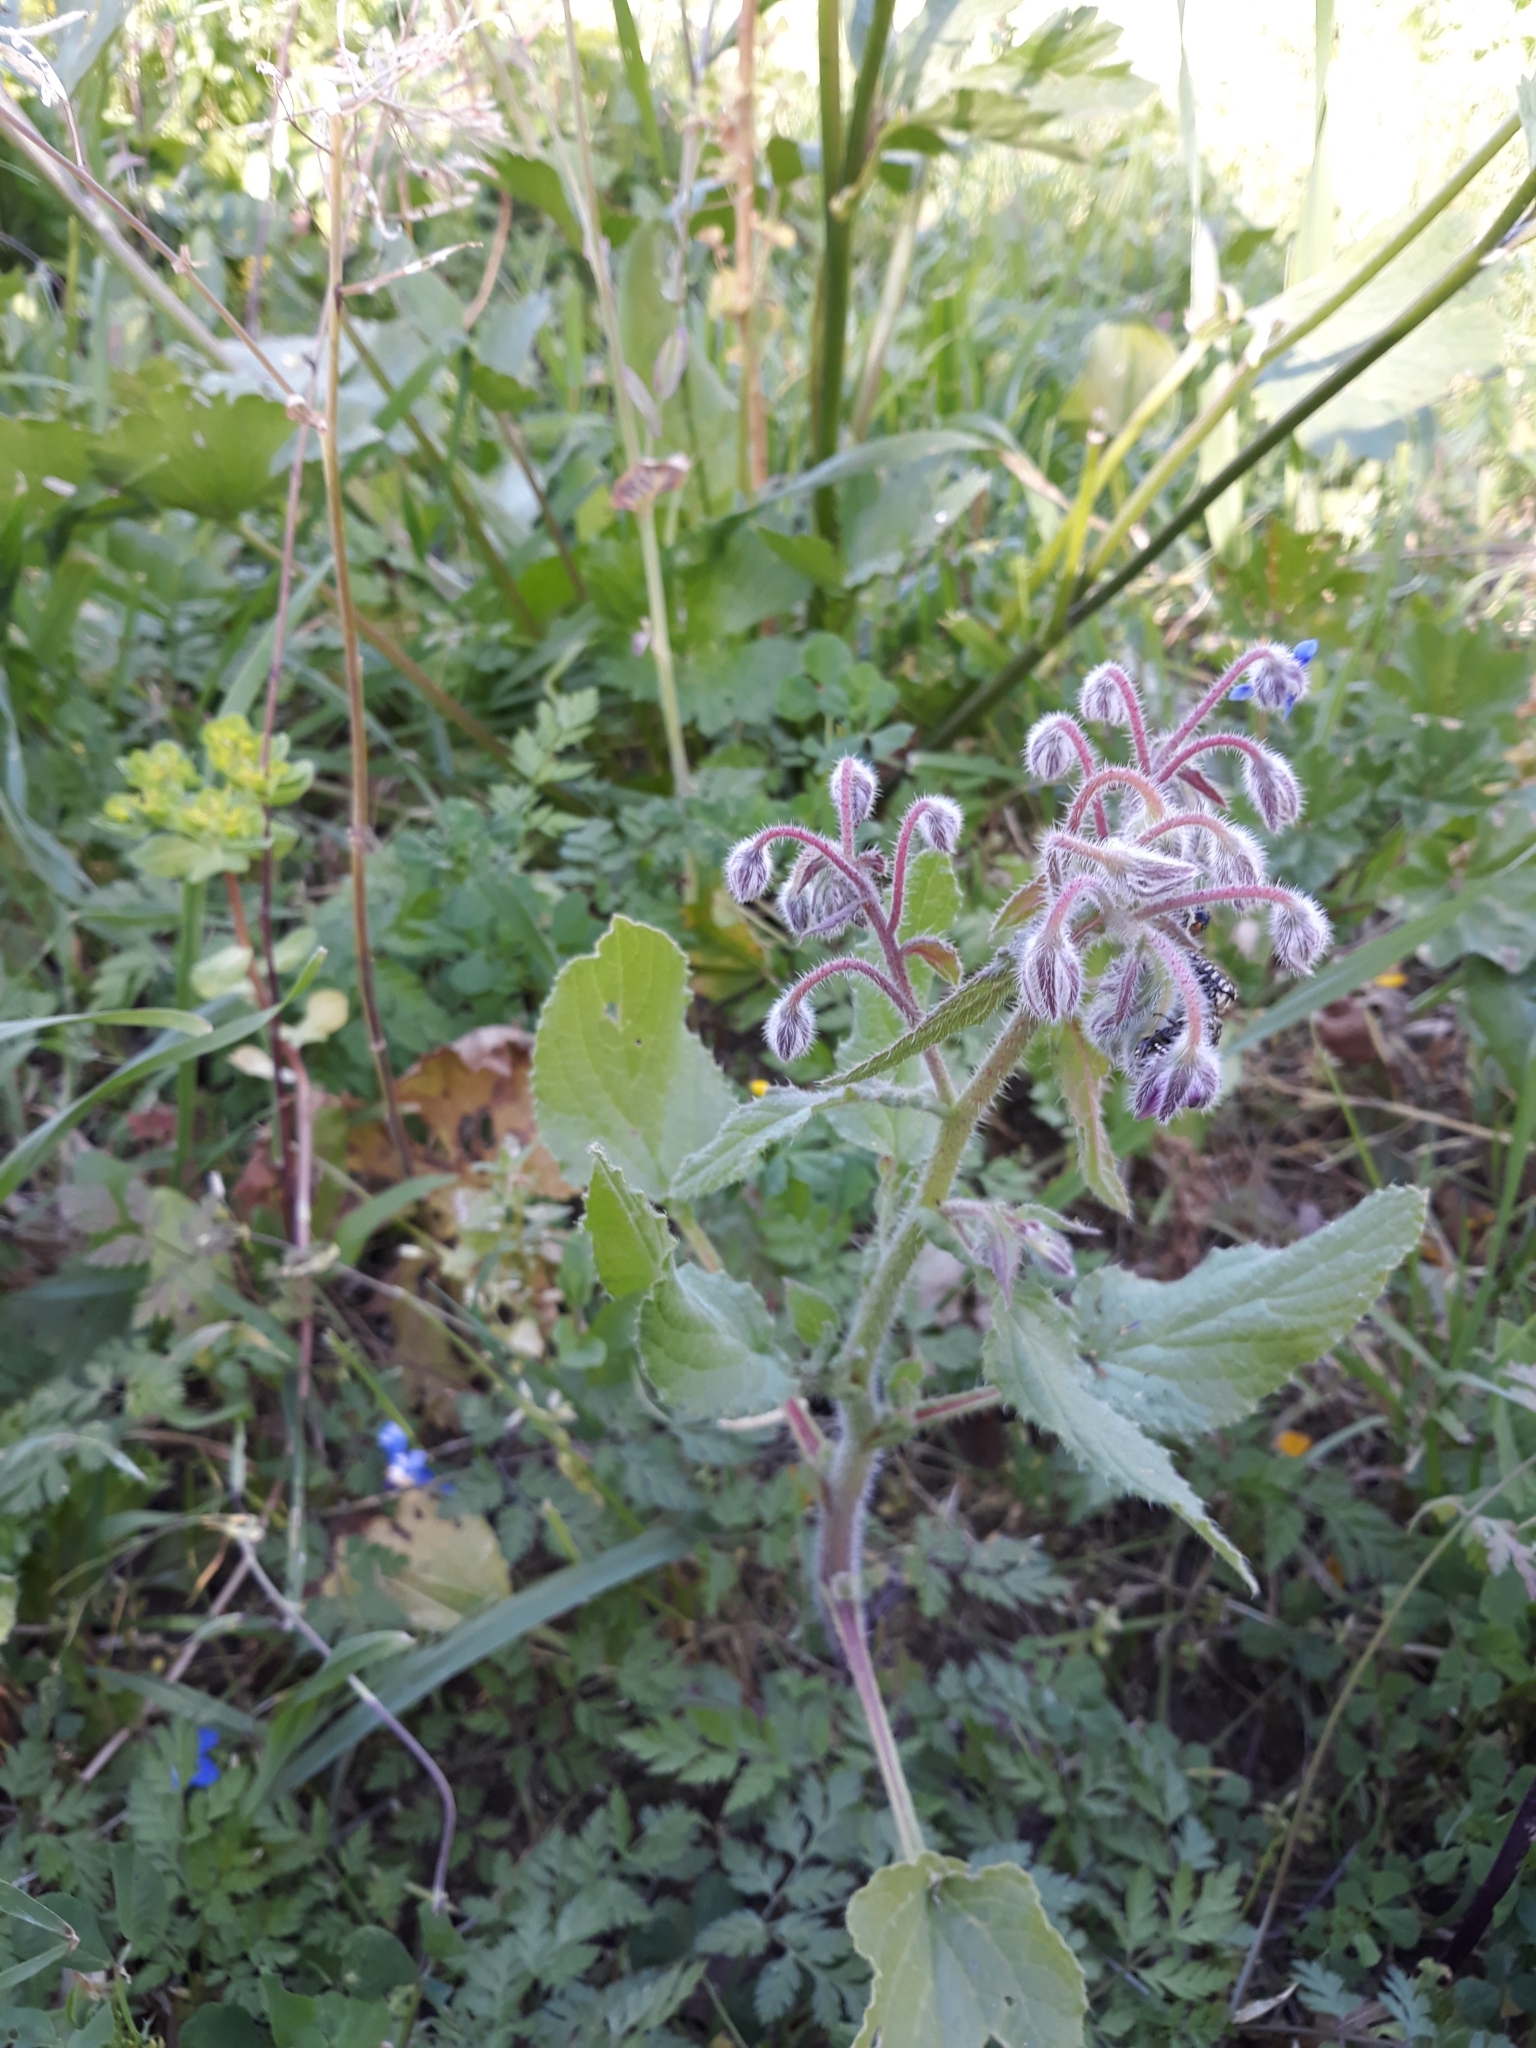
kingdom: Plantae
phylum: Tracheophyta
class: Magnoliopsida
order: Boraginales
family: Boraginaceae
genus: Borago
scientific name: Borago officinalis
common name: Borage
